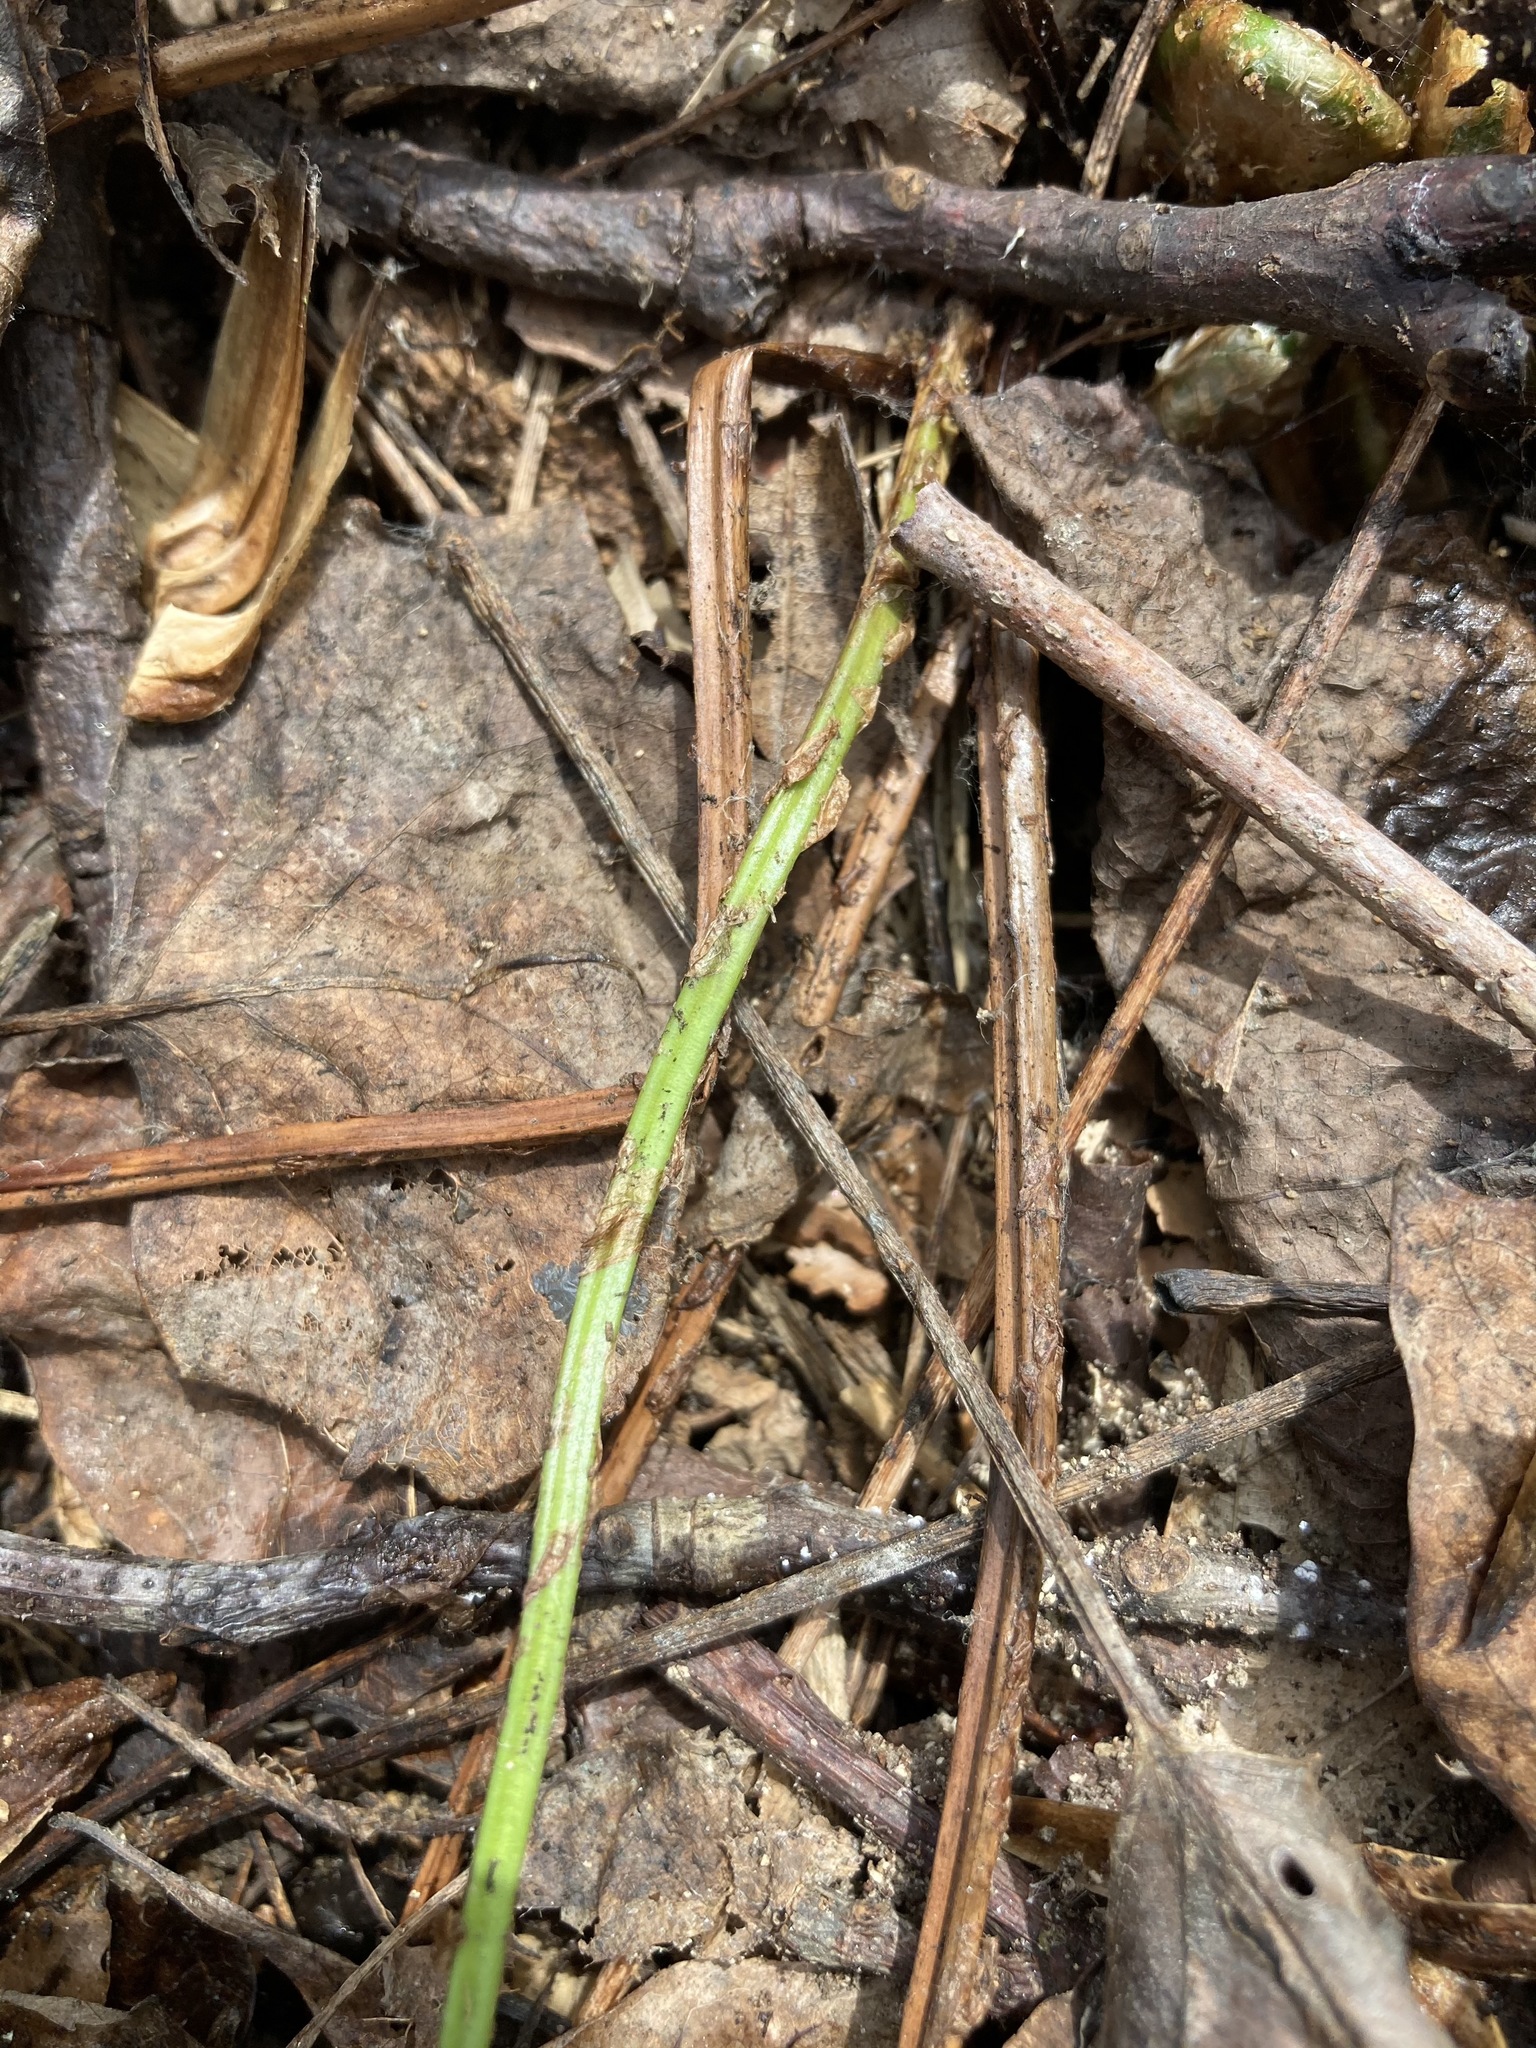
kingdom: Plantae
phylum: Tracheophyta
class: Polypodiopsida
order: Polypodiales
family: Dryopteridaceae
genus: Dryopteris
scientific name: Dryopteris intermedia
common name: Evergreen wood fern
